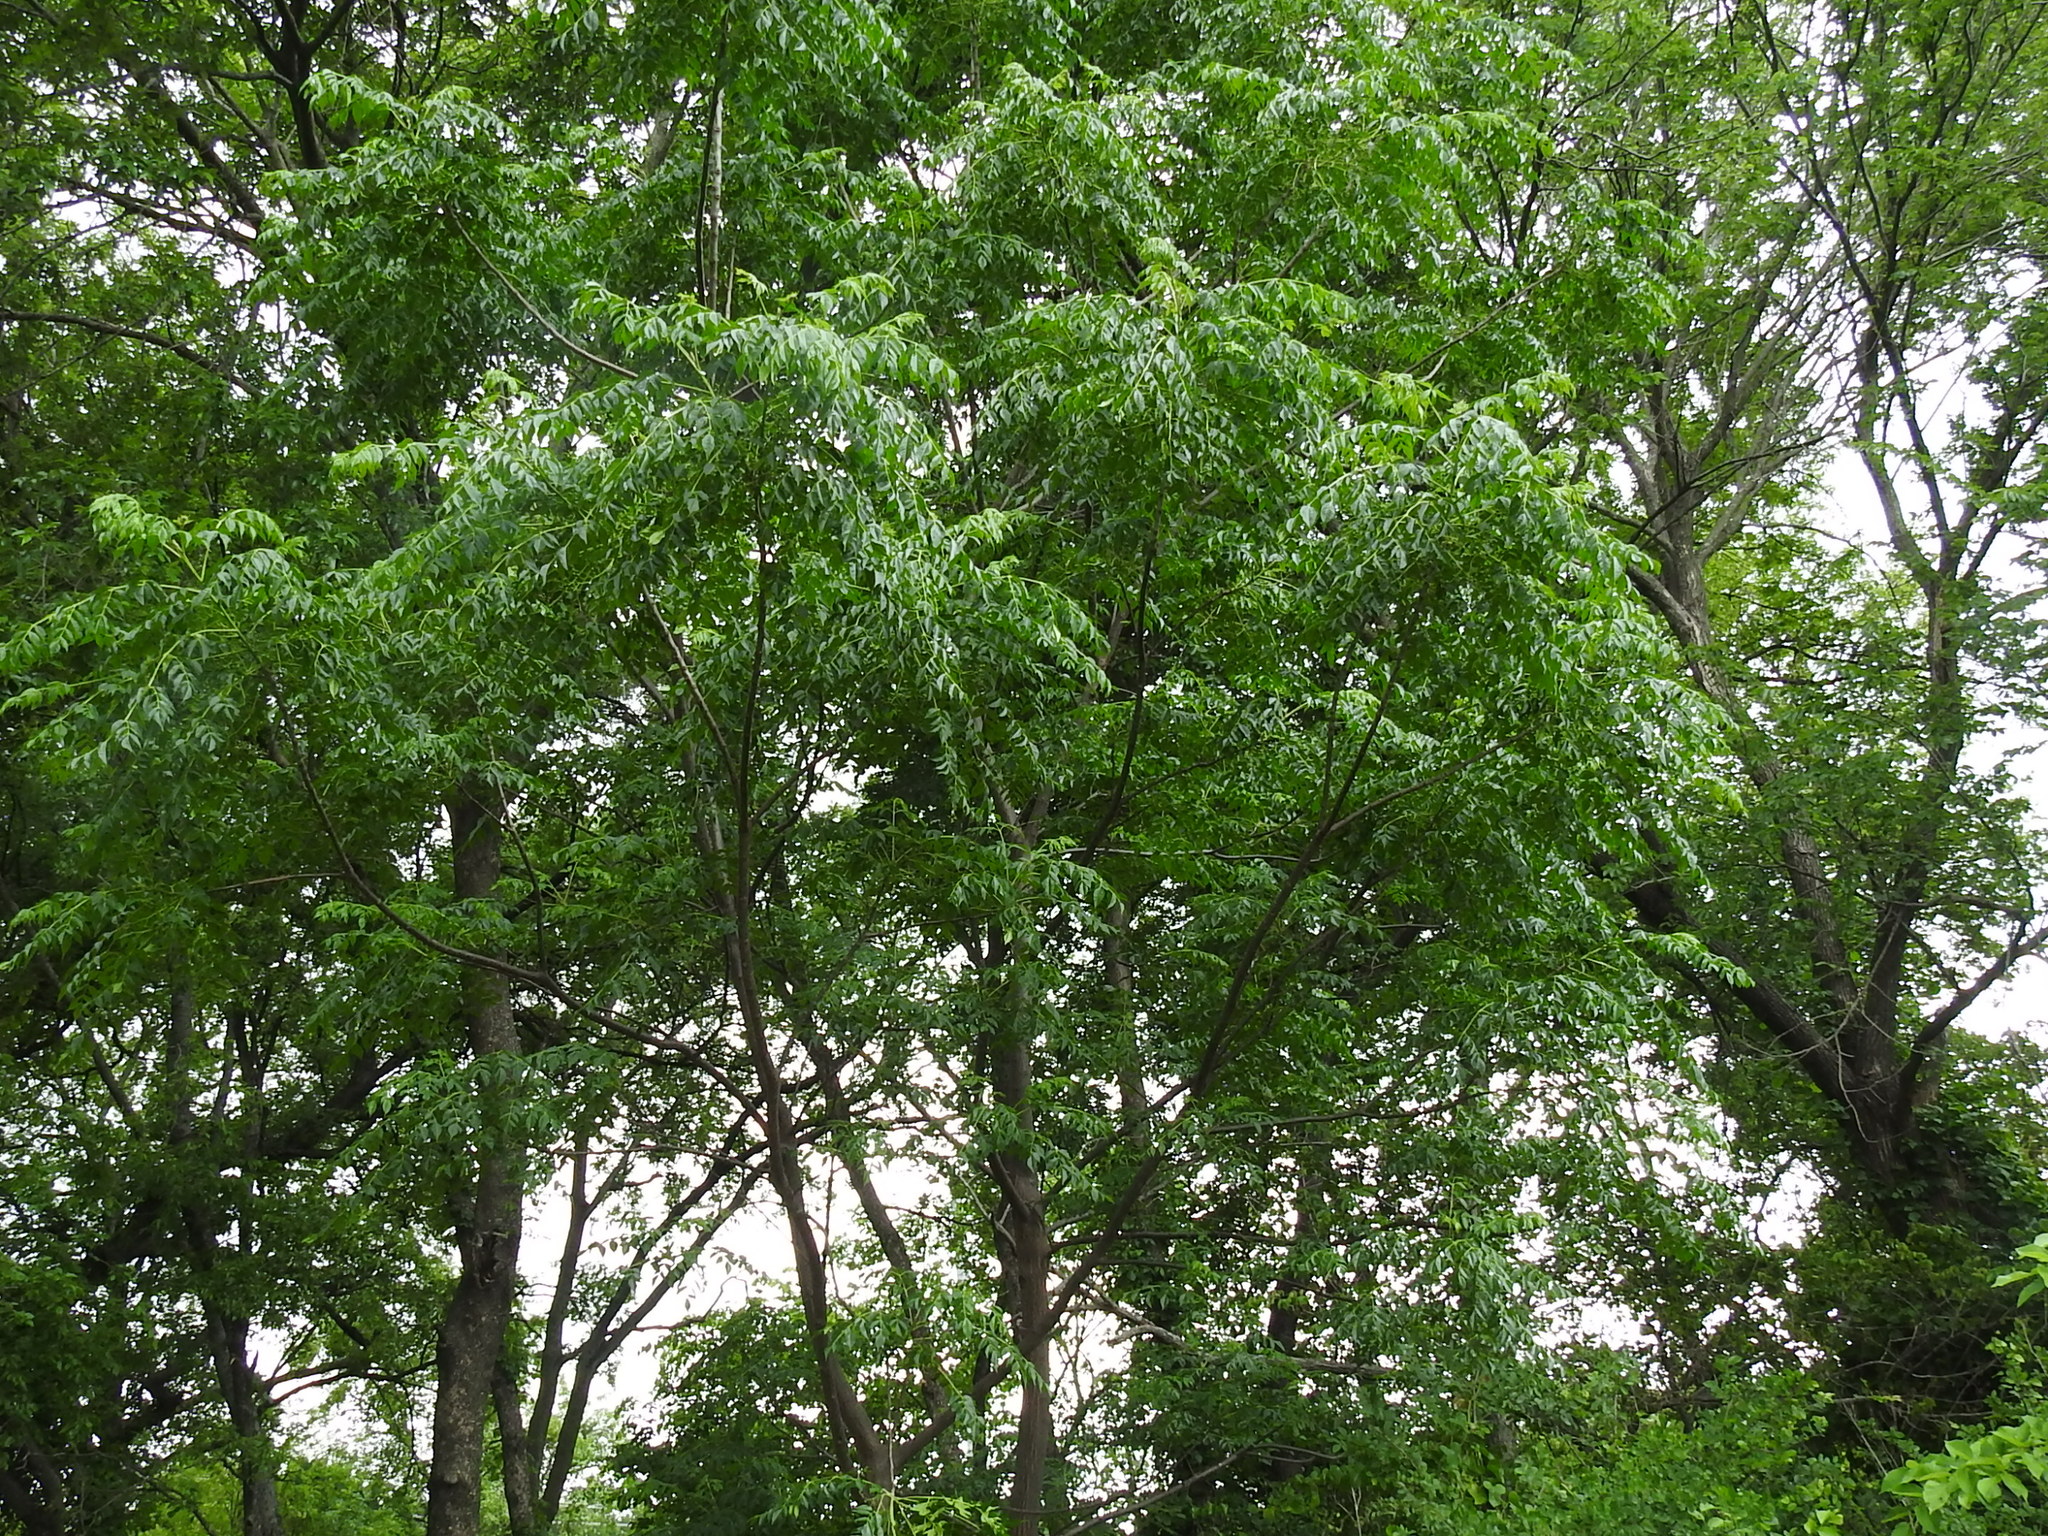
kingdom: Plantae
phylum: Tracheophyta
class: Magnoliopsida
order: Sapindales
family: Meliaceae
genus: Melia
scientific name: Melia azedarach
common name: Chinaberrytree
